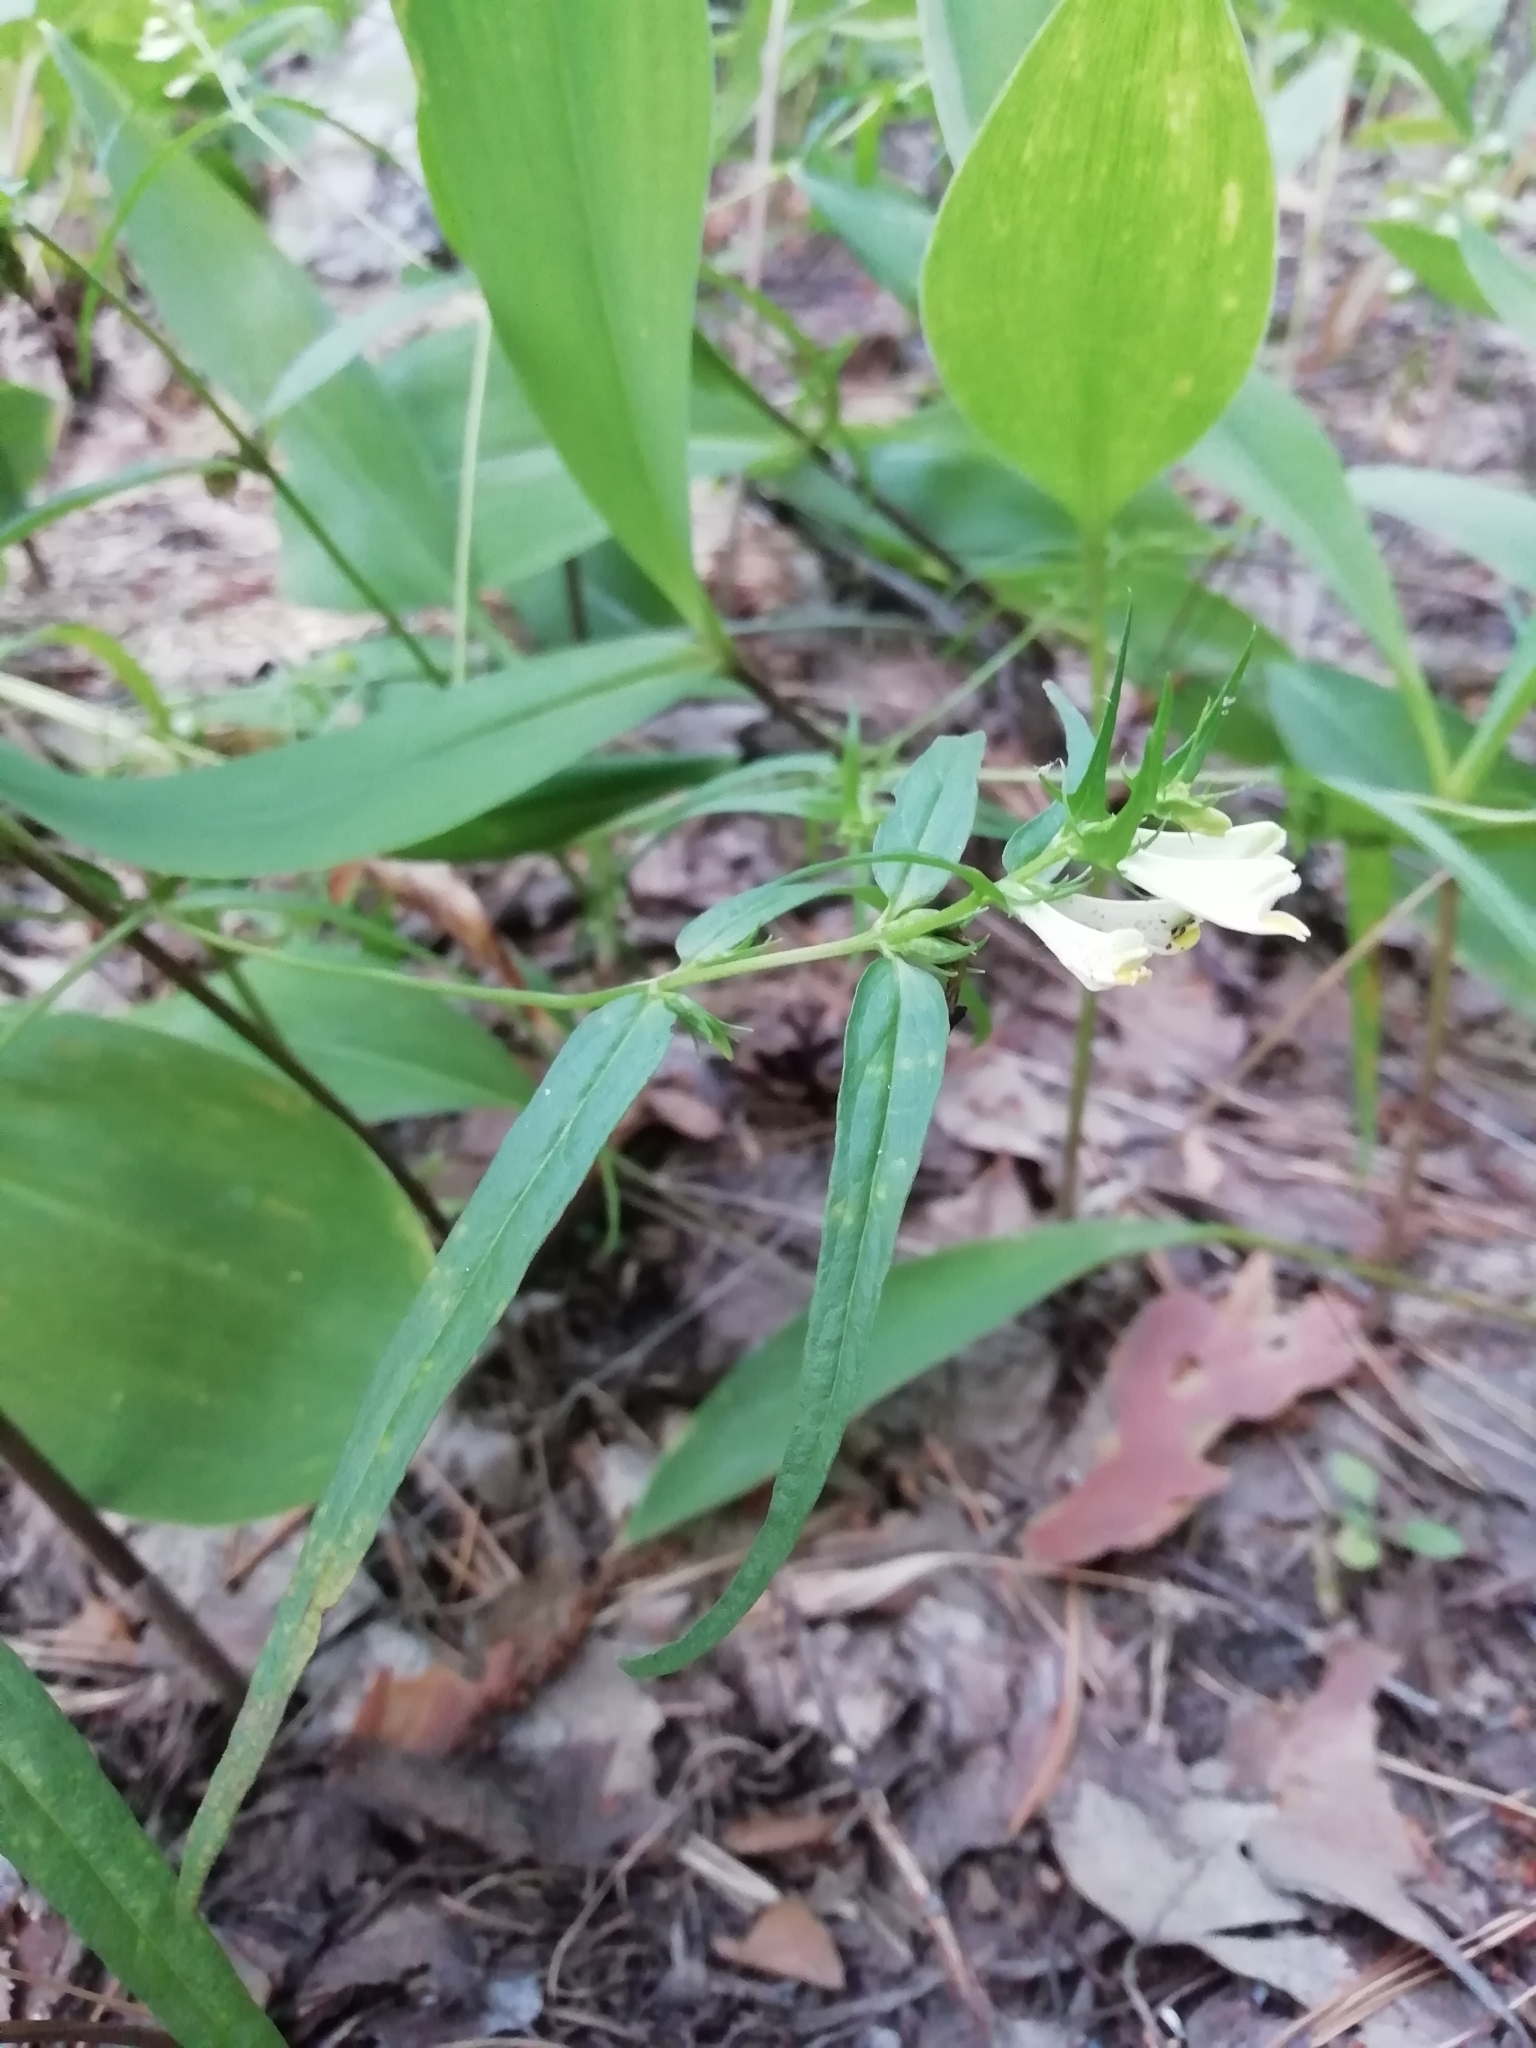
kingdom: Plantae
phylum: Tracheophyta
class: Magnoliopsida
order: Lamiales
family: Orobanchaceae
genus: Melampyrum
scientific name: Melampyrum pratense
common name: Common cow-wheat
